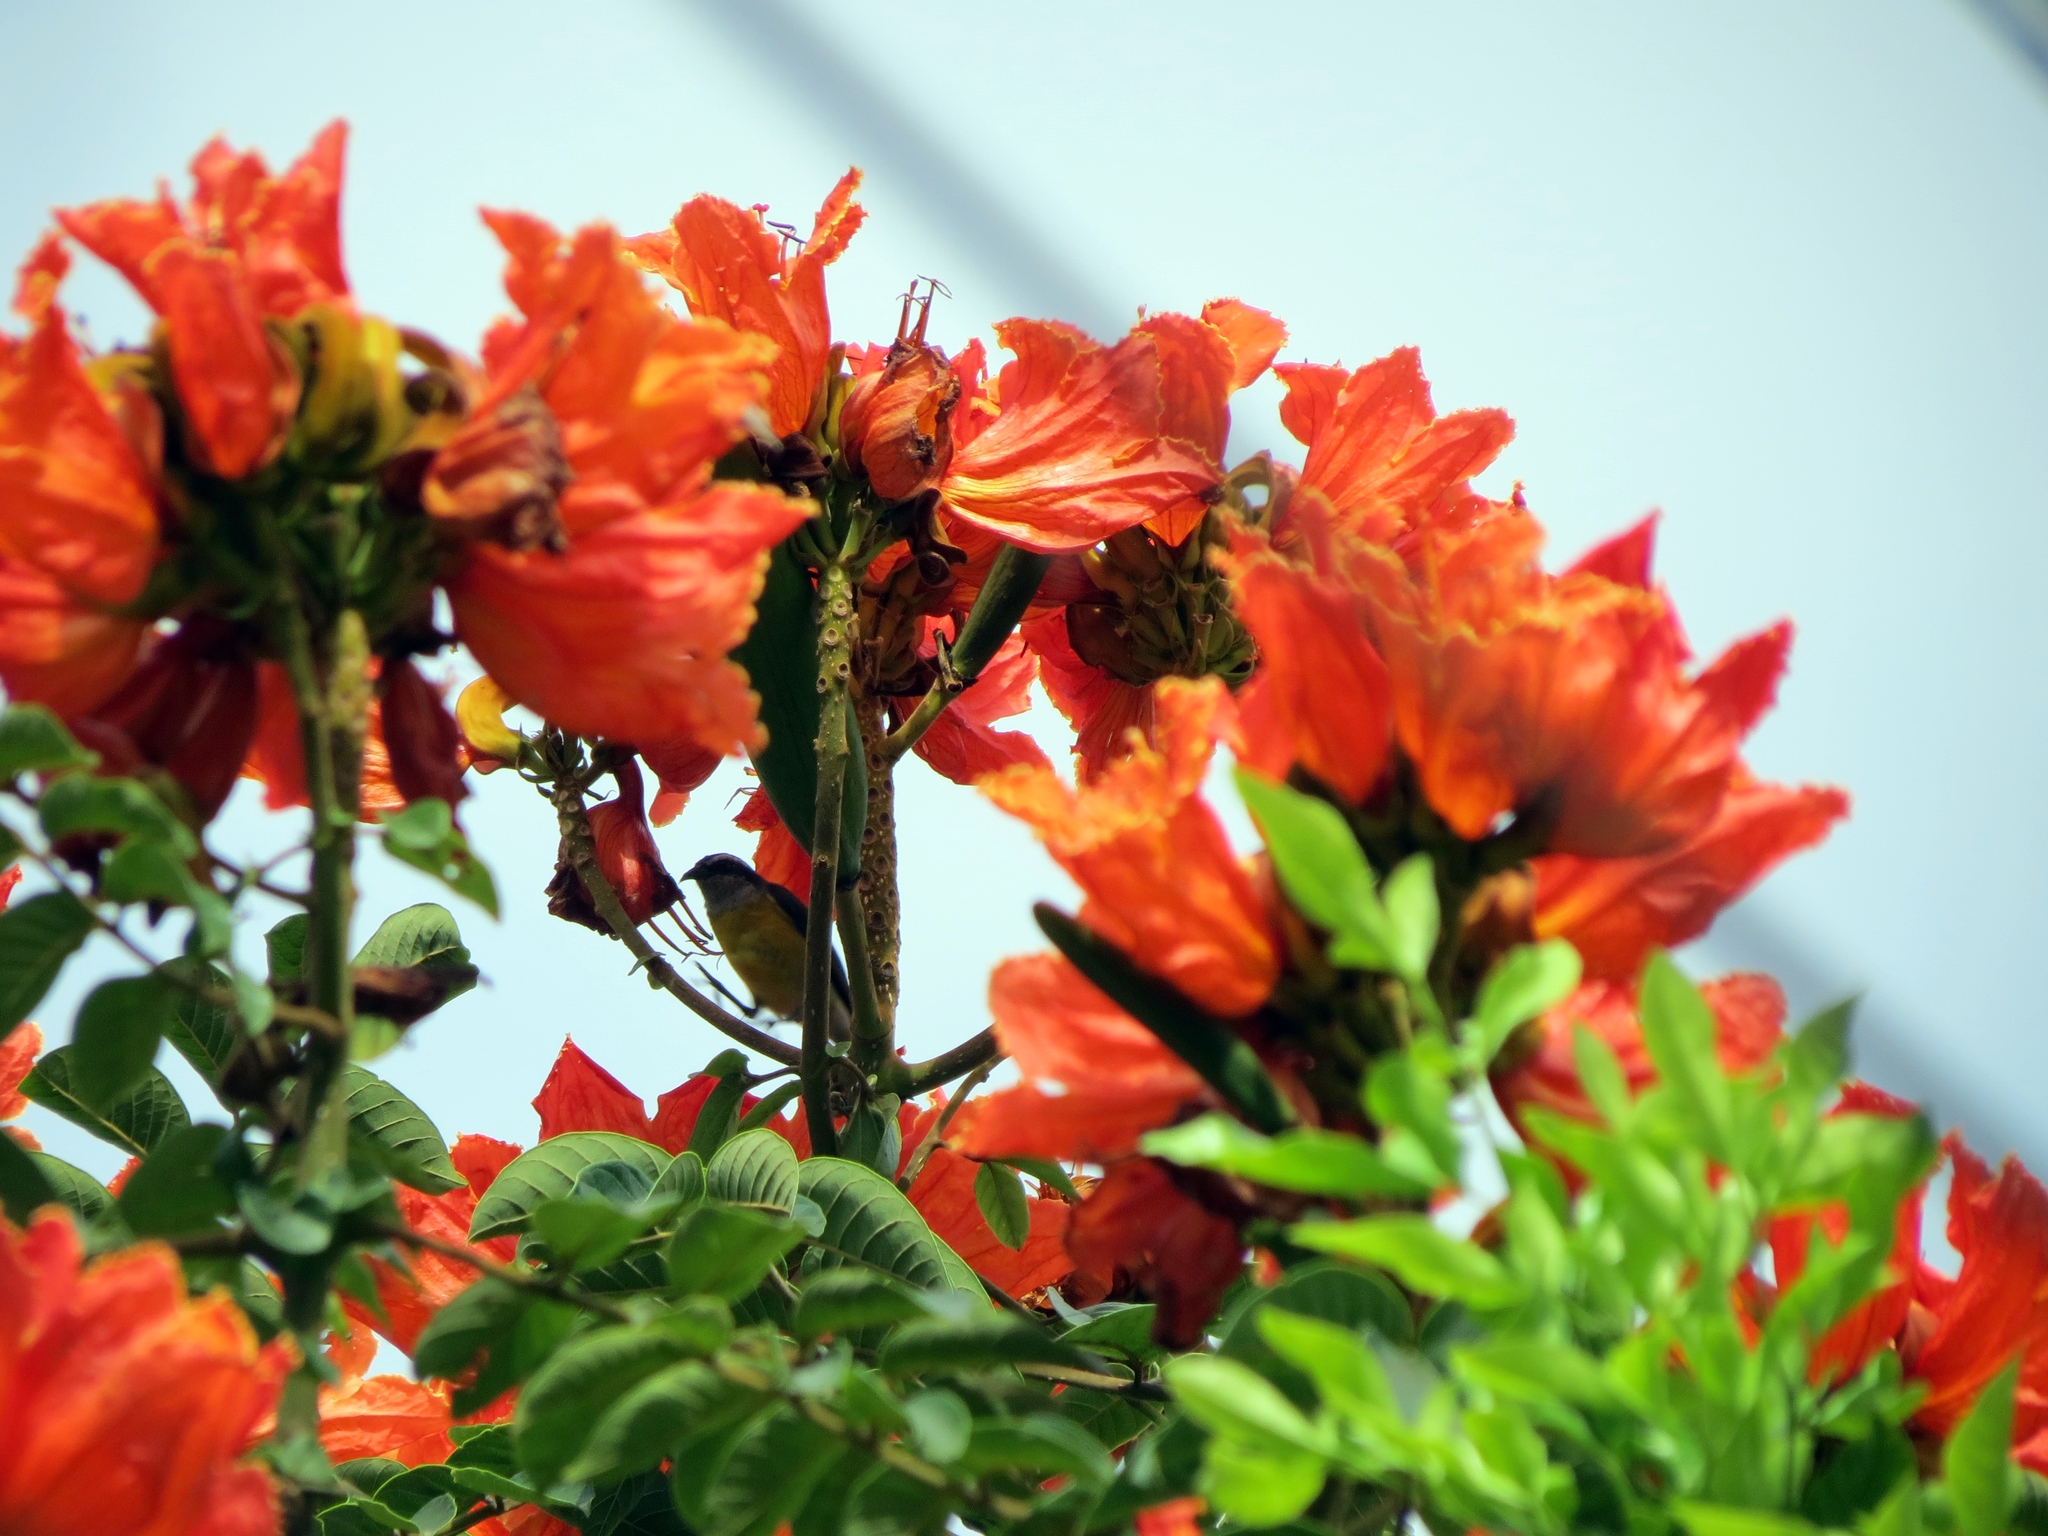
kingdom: Animalia
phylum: Chordata
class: Aves
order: Passeriformes
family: Thraupidae
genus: Coereba
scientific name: Coereba flaveola
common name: Bananaquit
